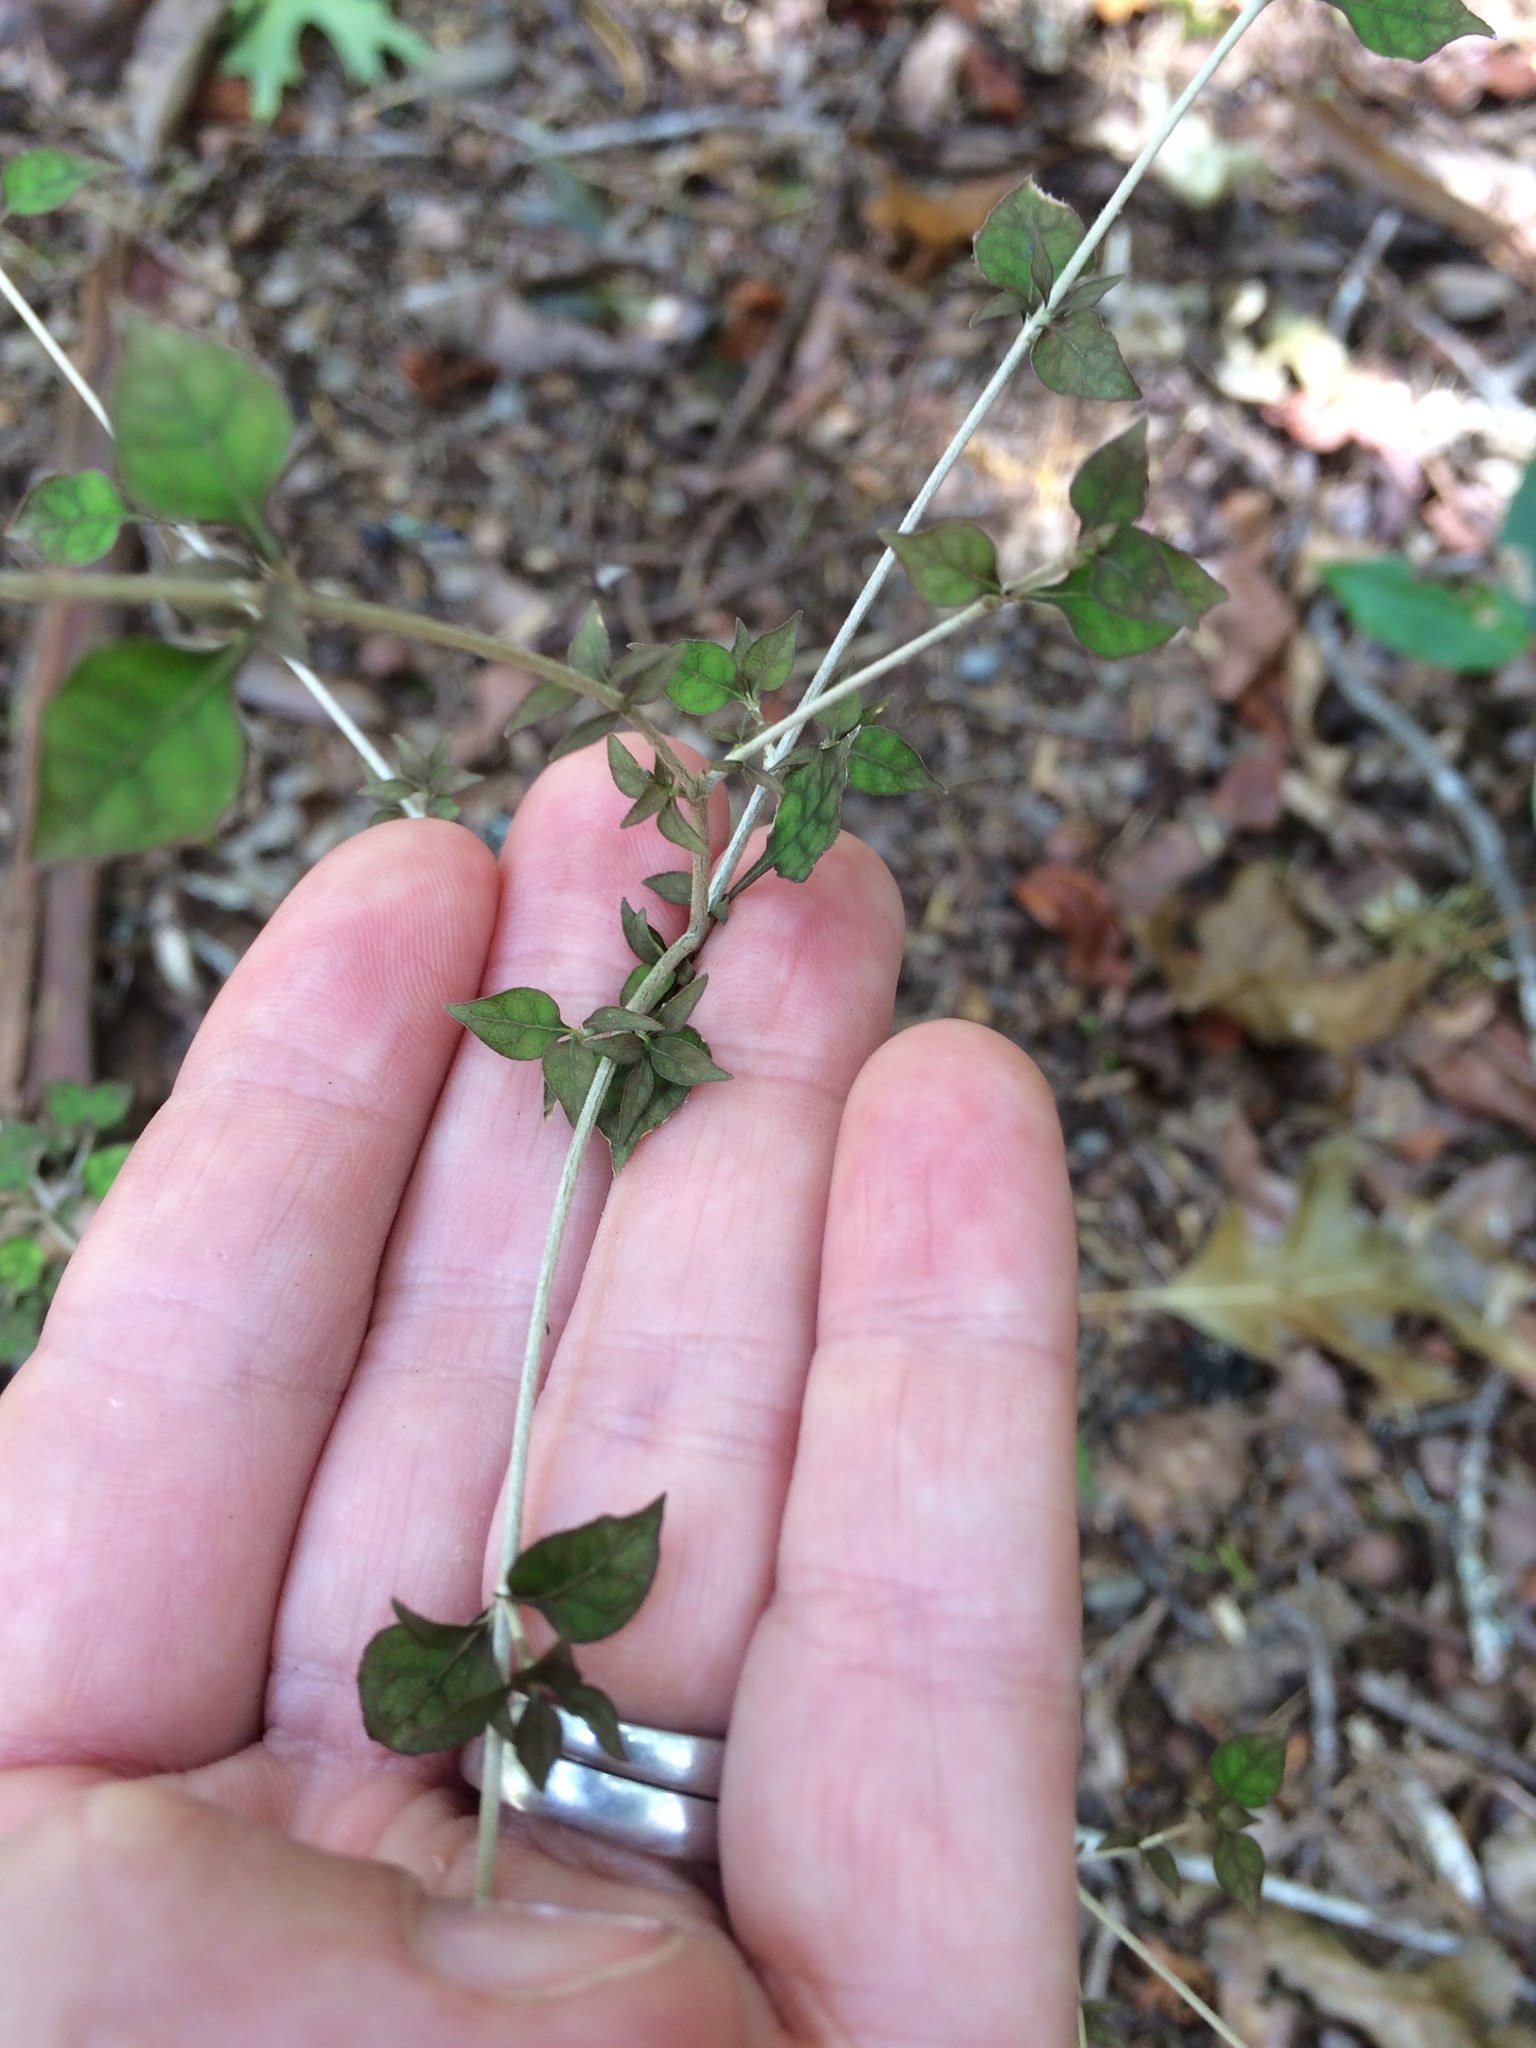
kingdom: Plantae
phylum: Tracheophyta
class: Magnoliopsida
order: Gentianales
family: Rubiaceae
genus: Coprosma
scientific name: Coprosma areolata
